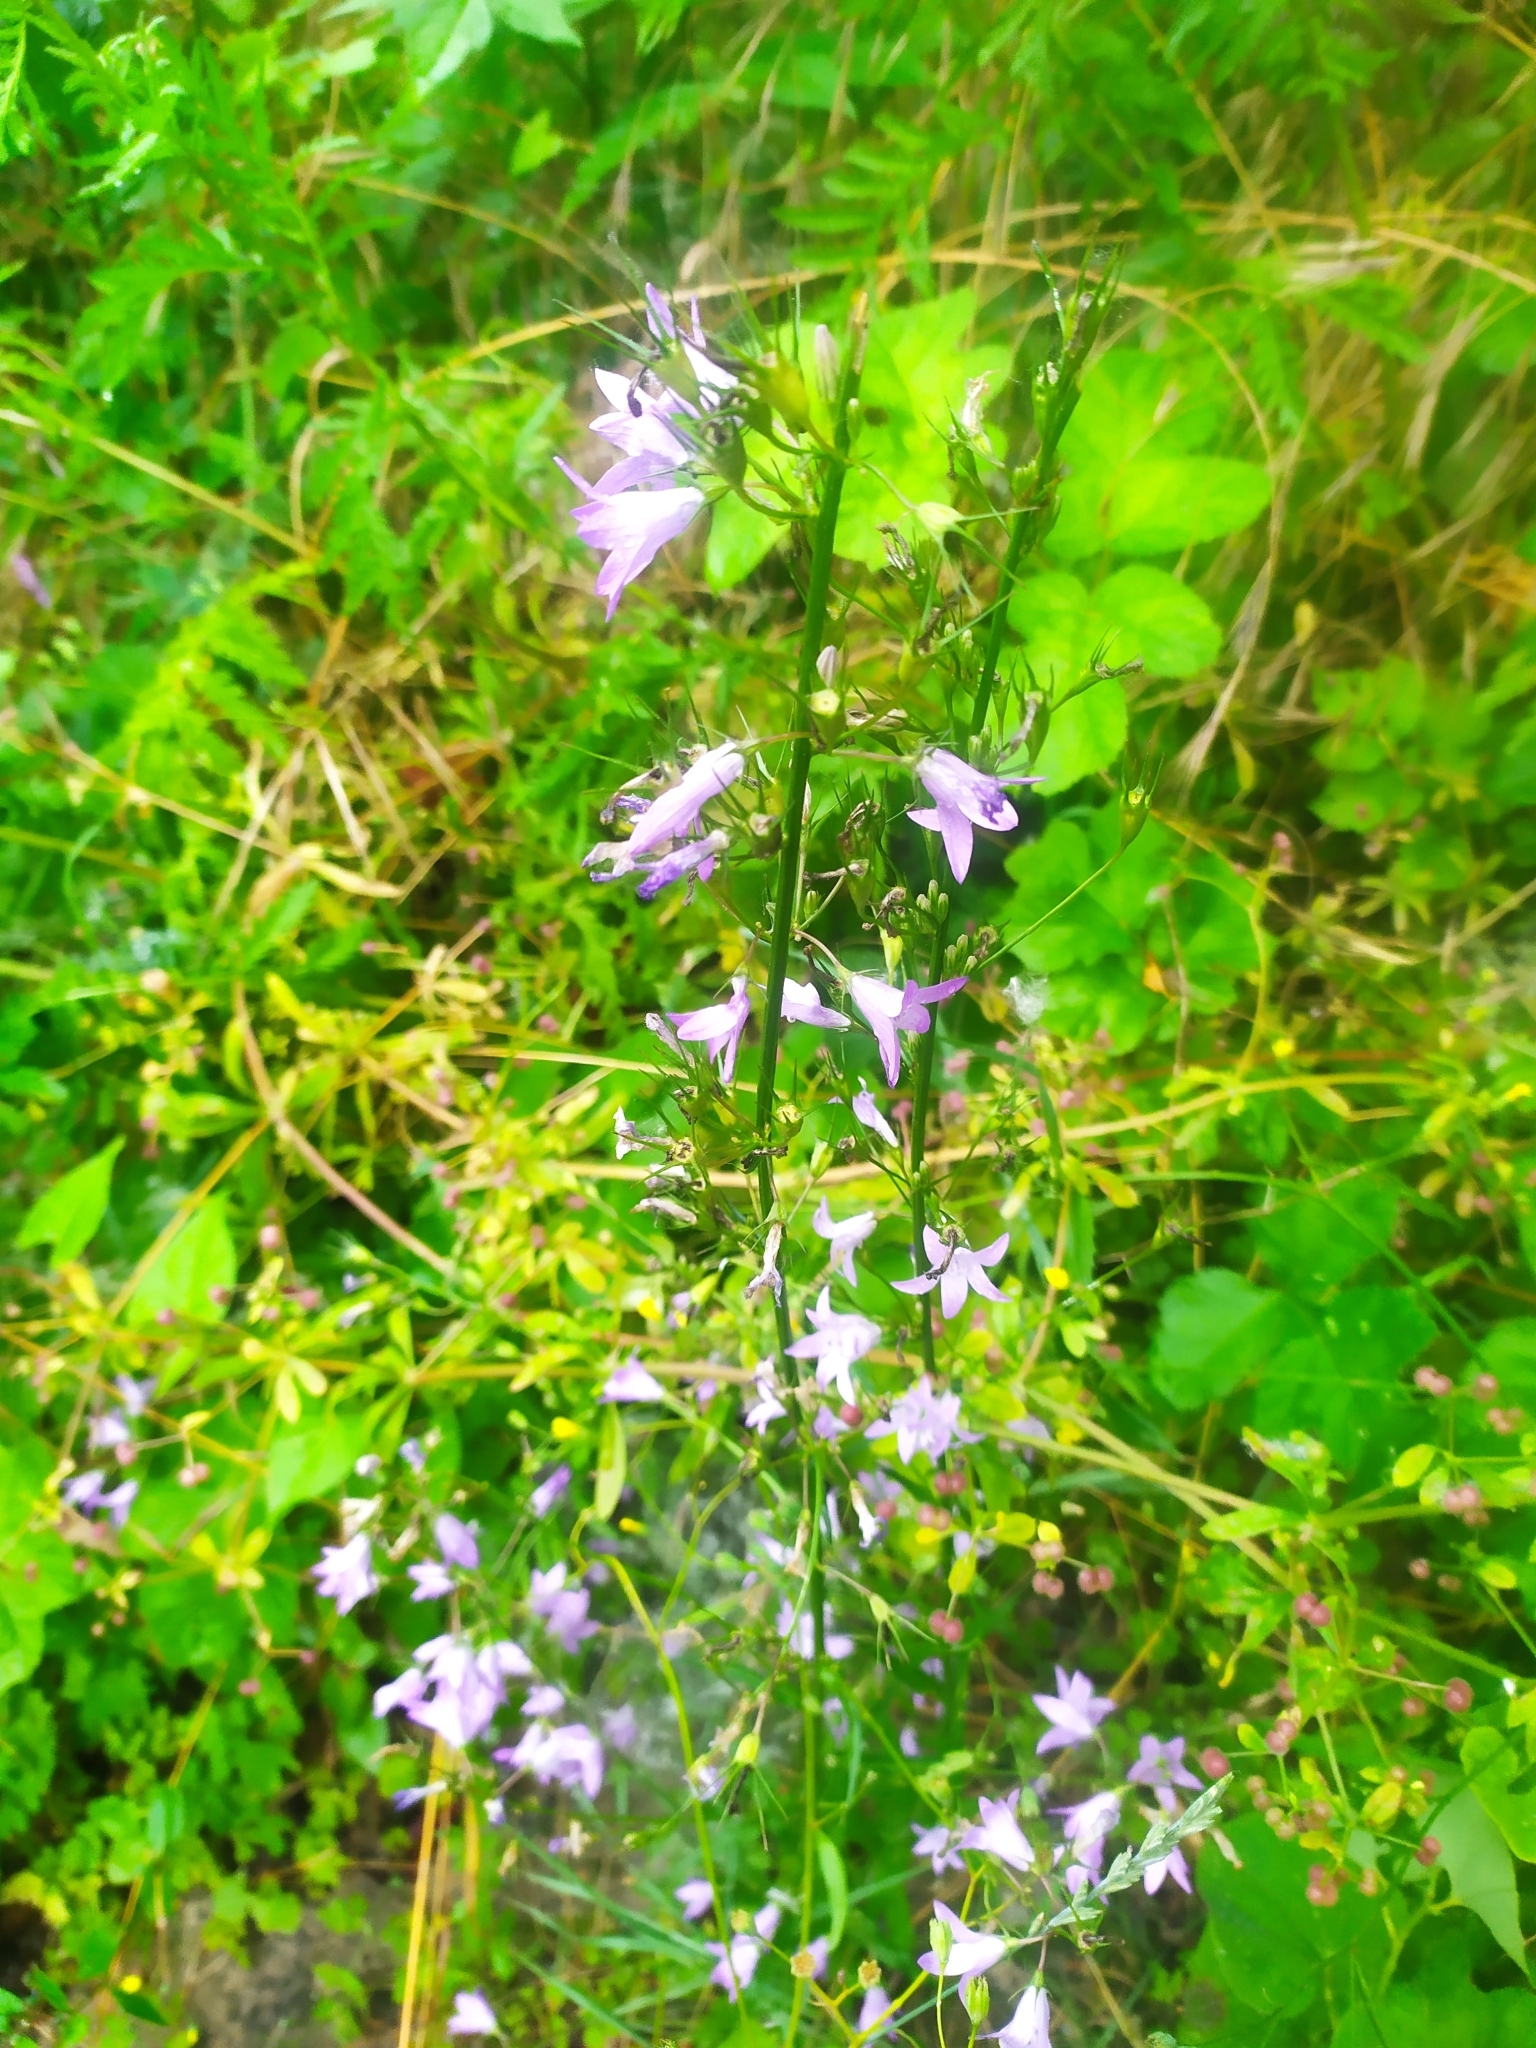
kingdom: Plantae
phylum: Tracheophyta
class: Magnoliopsida
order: Asterales
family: Campanulaceae
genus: Campanula
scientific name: Campanula rapunculus
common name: Rampion bellflower
